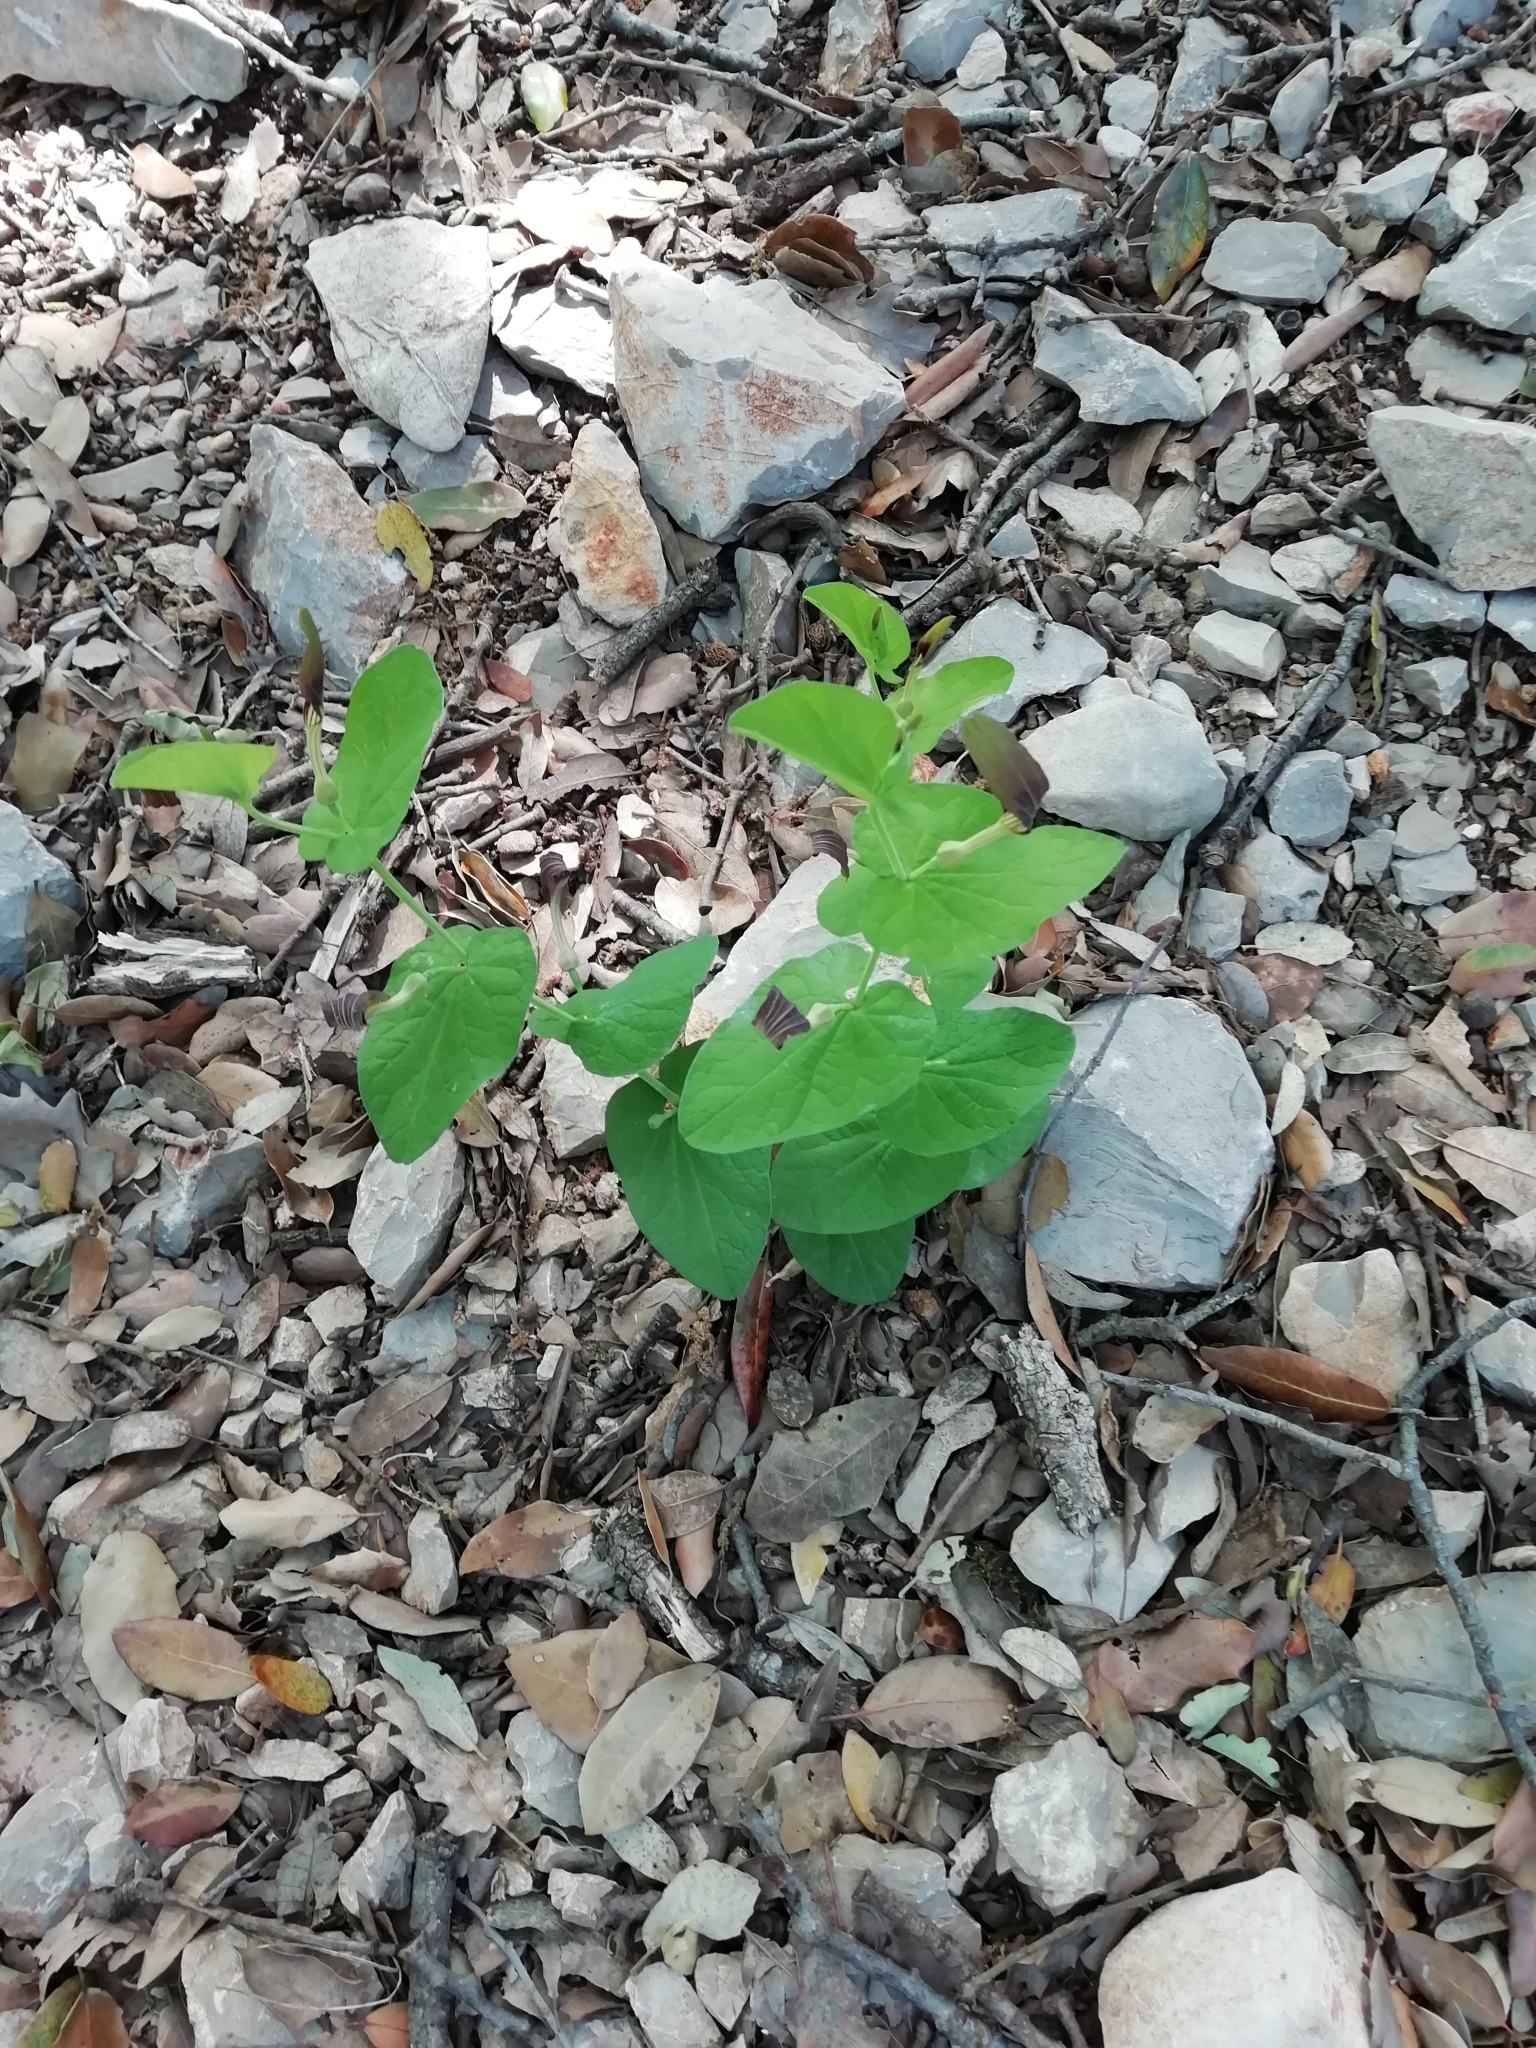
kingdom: Plantae
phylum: Tracheophyta
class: Magnoliopsida
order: Piperales
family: Aristolochiaceae
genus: Aristolochia
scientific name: Aristolochia rotunda
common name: Smearwort
